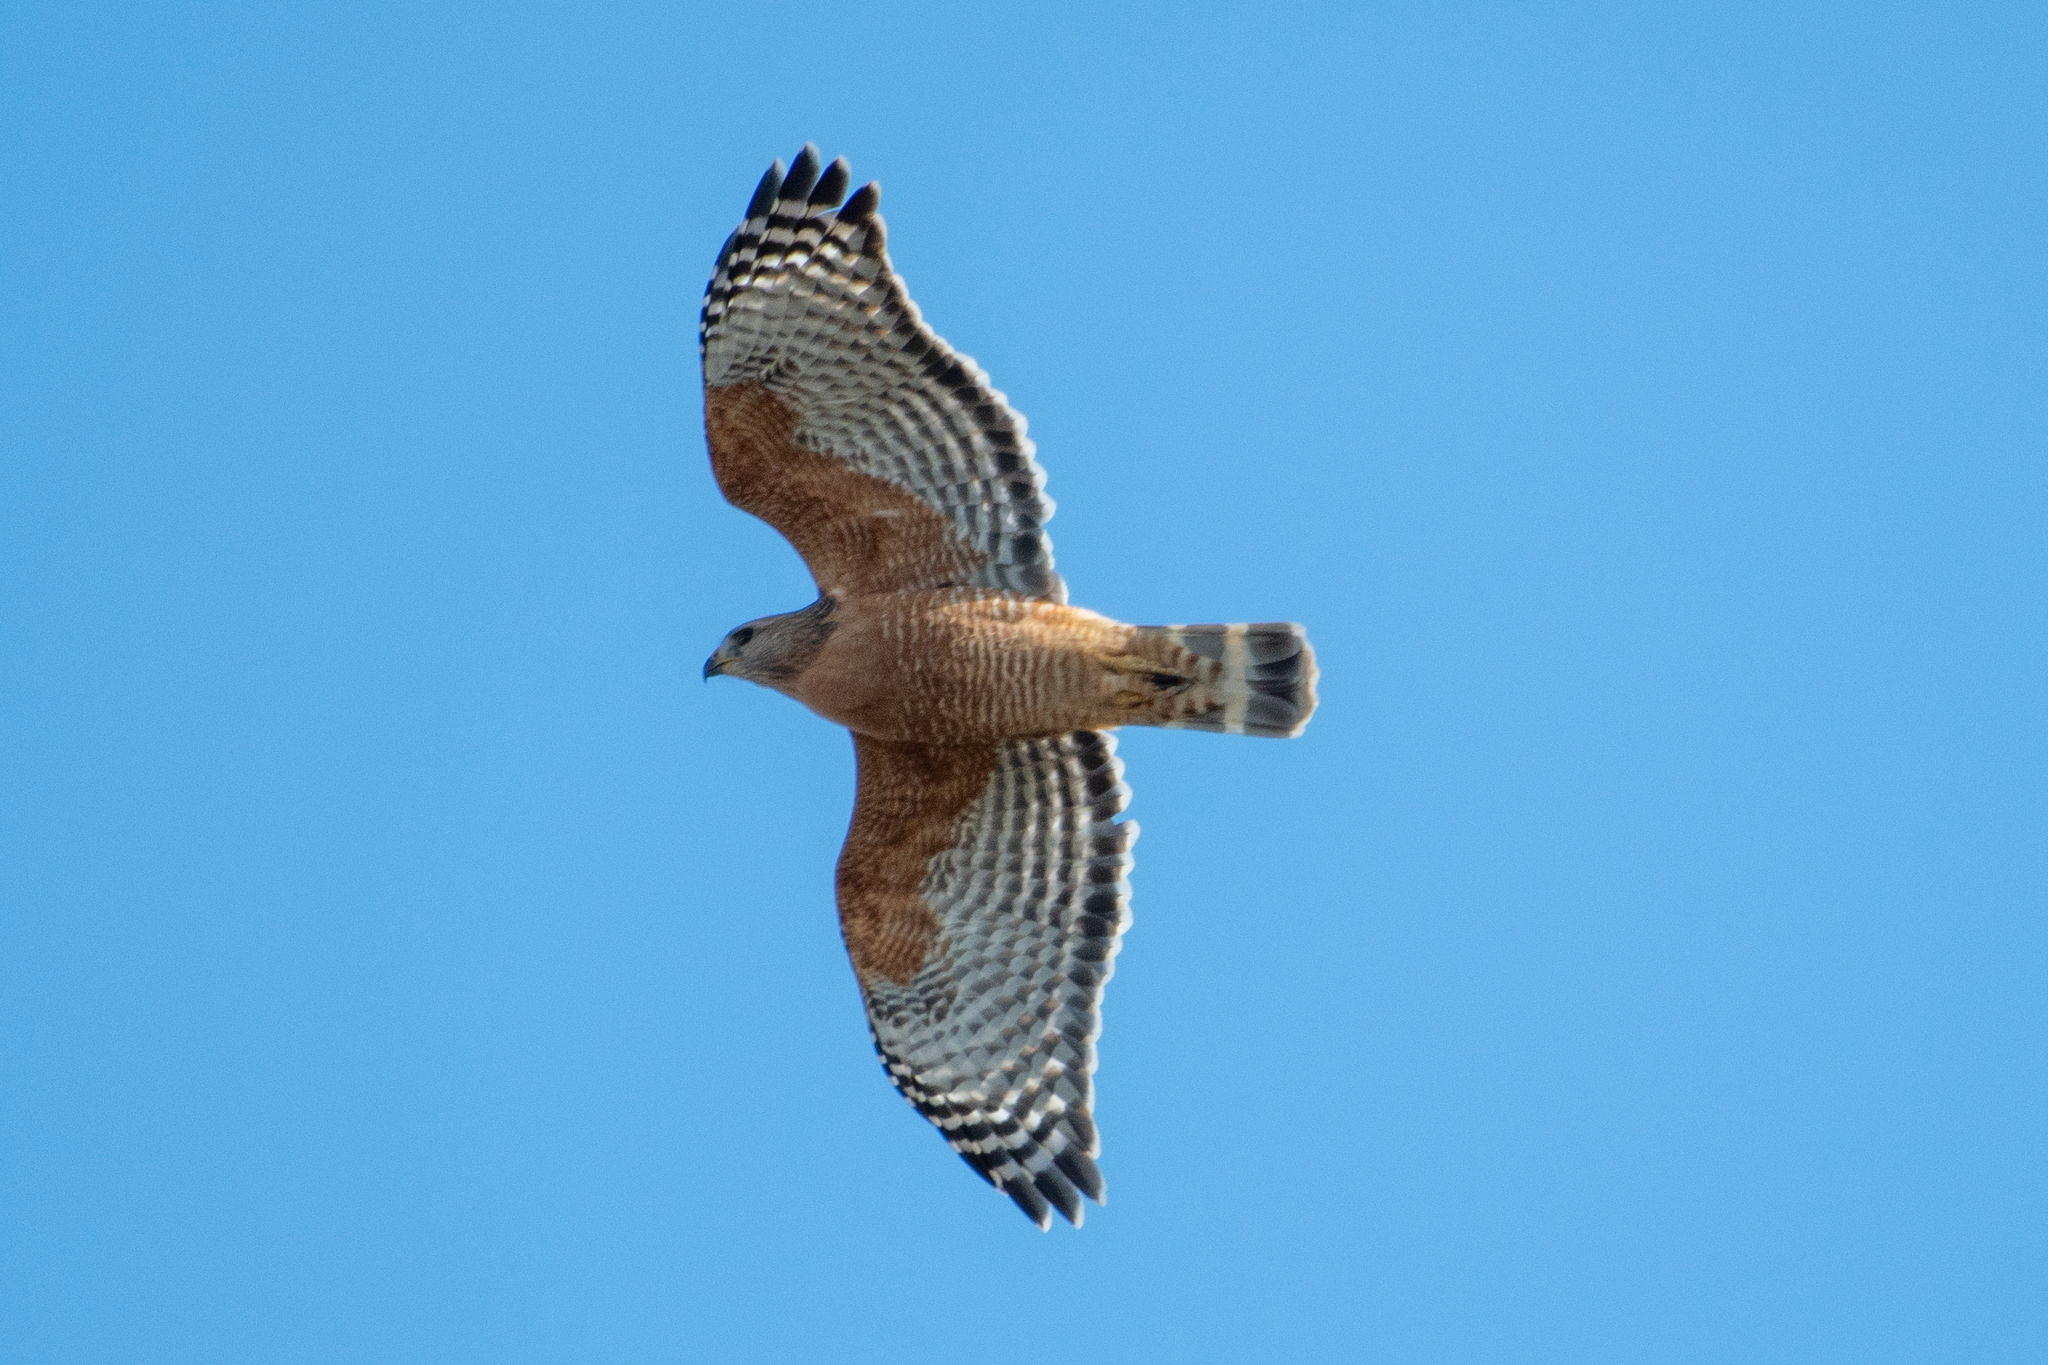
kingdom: Animalia
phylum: Chordata
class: Aves
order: Accipitriformes
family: Accipitridae
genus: Buteo
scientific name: Buteo lineatus
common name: Red-shouldered hawk
